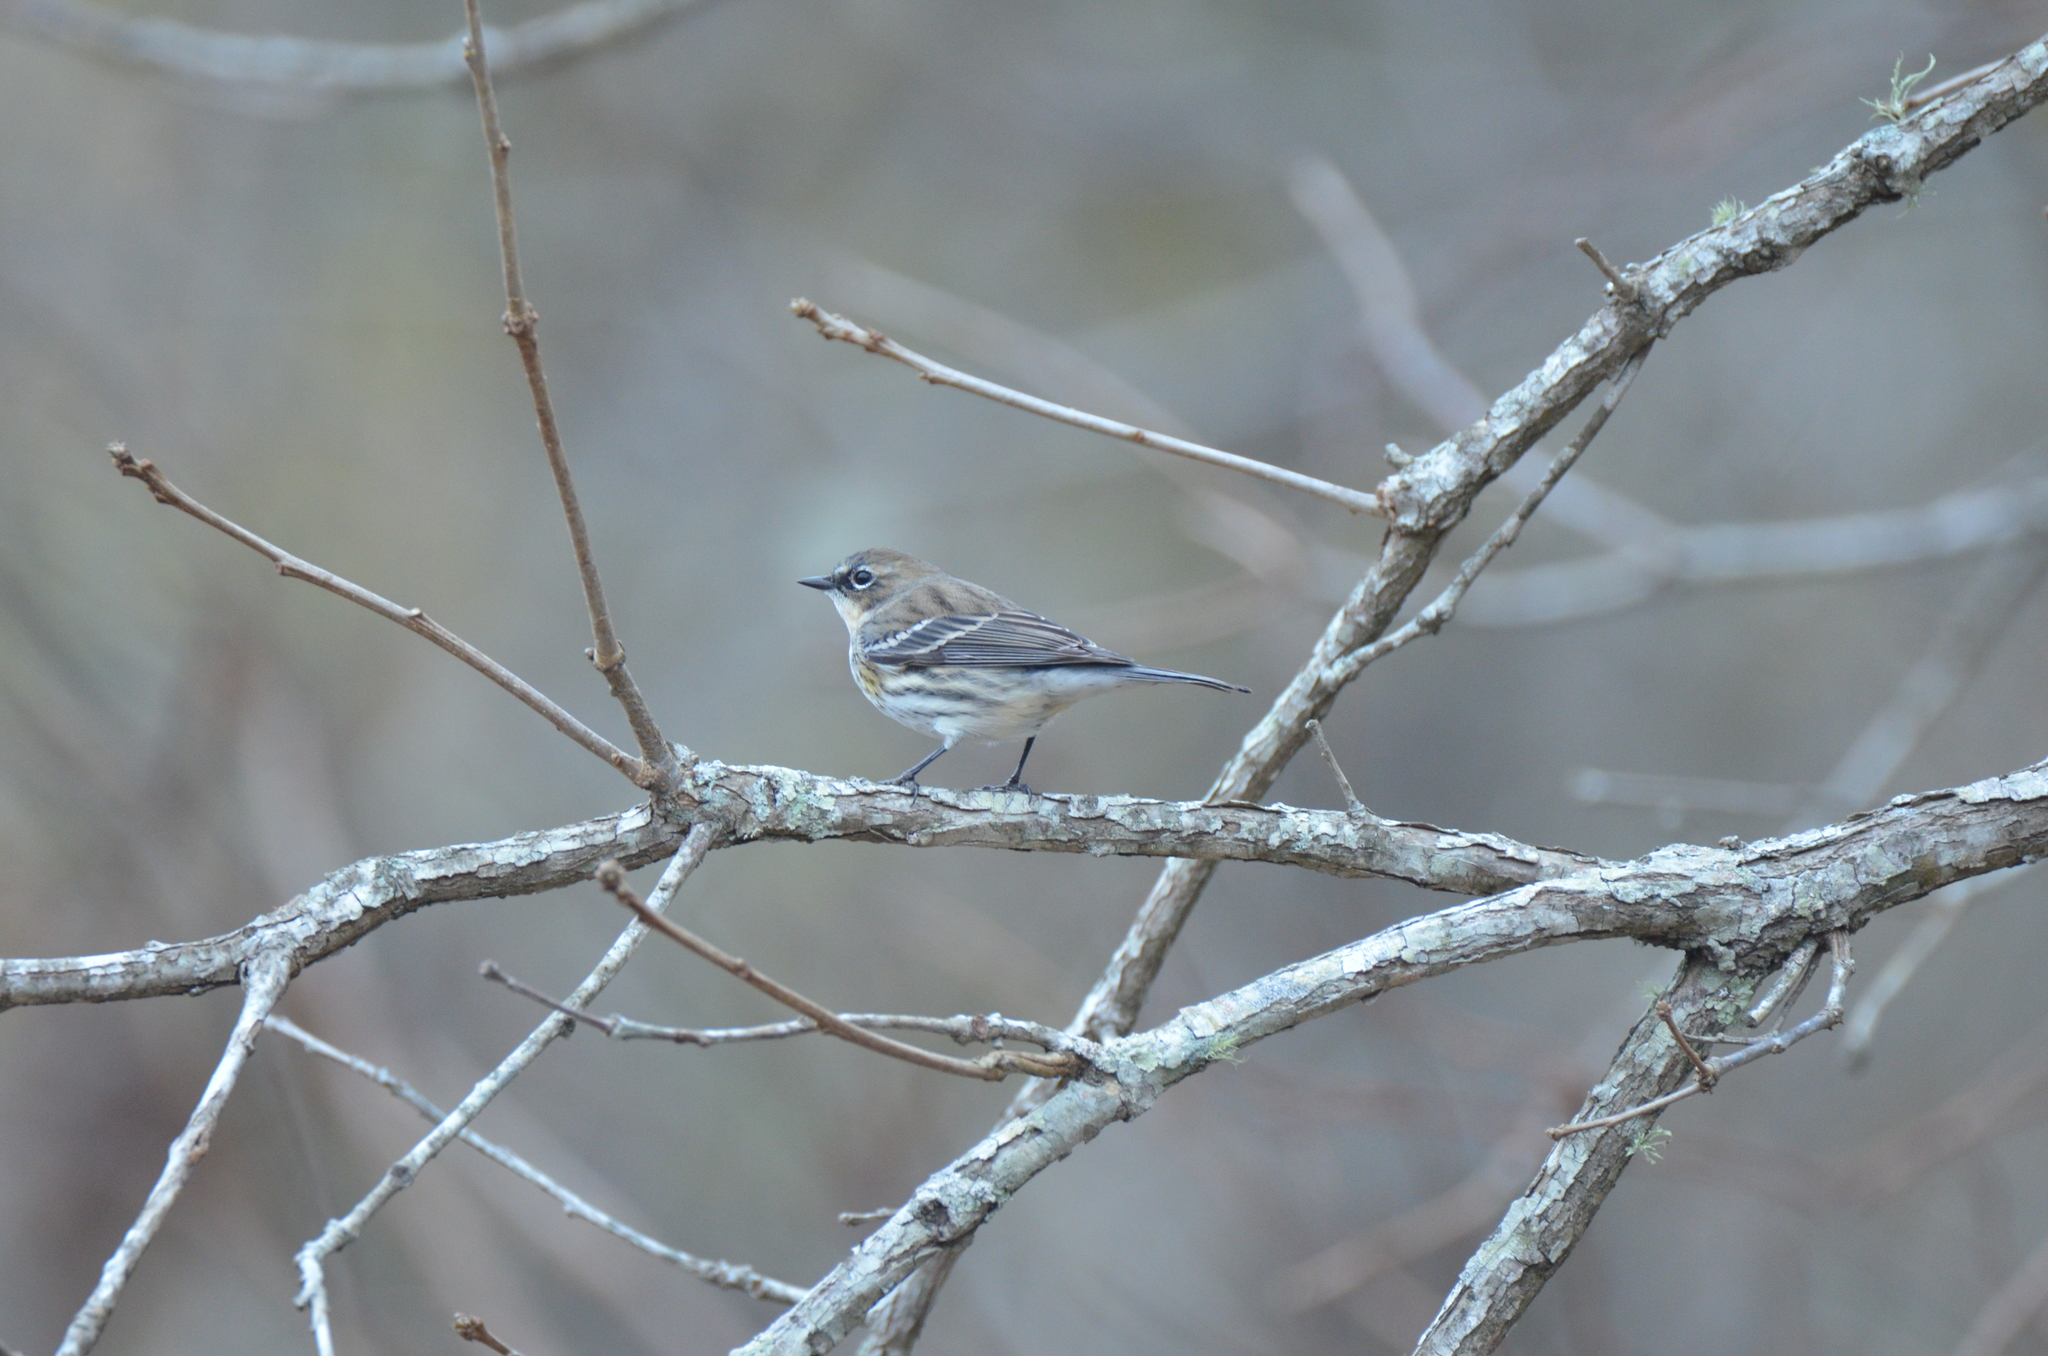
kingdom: Animalia
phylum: Chordata
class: Aves
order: Passeriformes
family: Parulidae
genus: Setophaga
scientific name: Setophaga coronata
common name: Myrtle warbler
